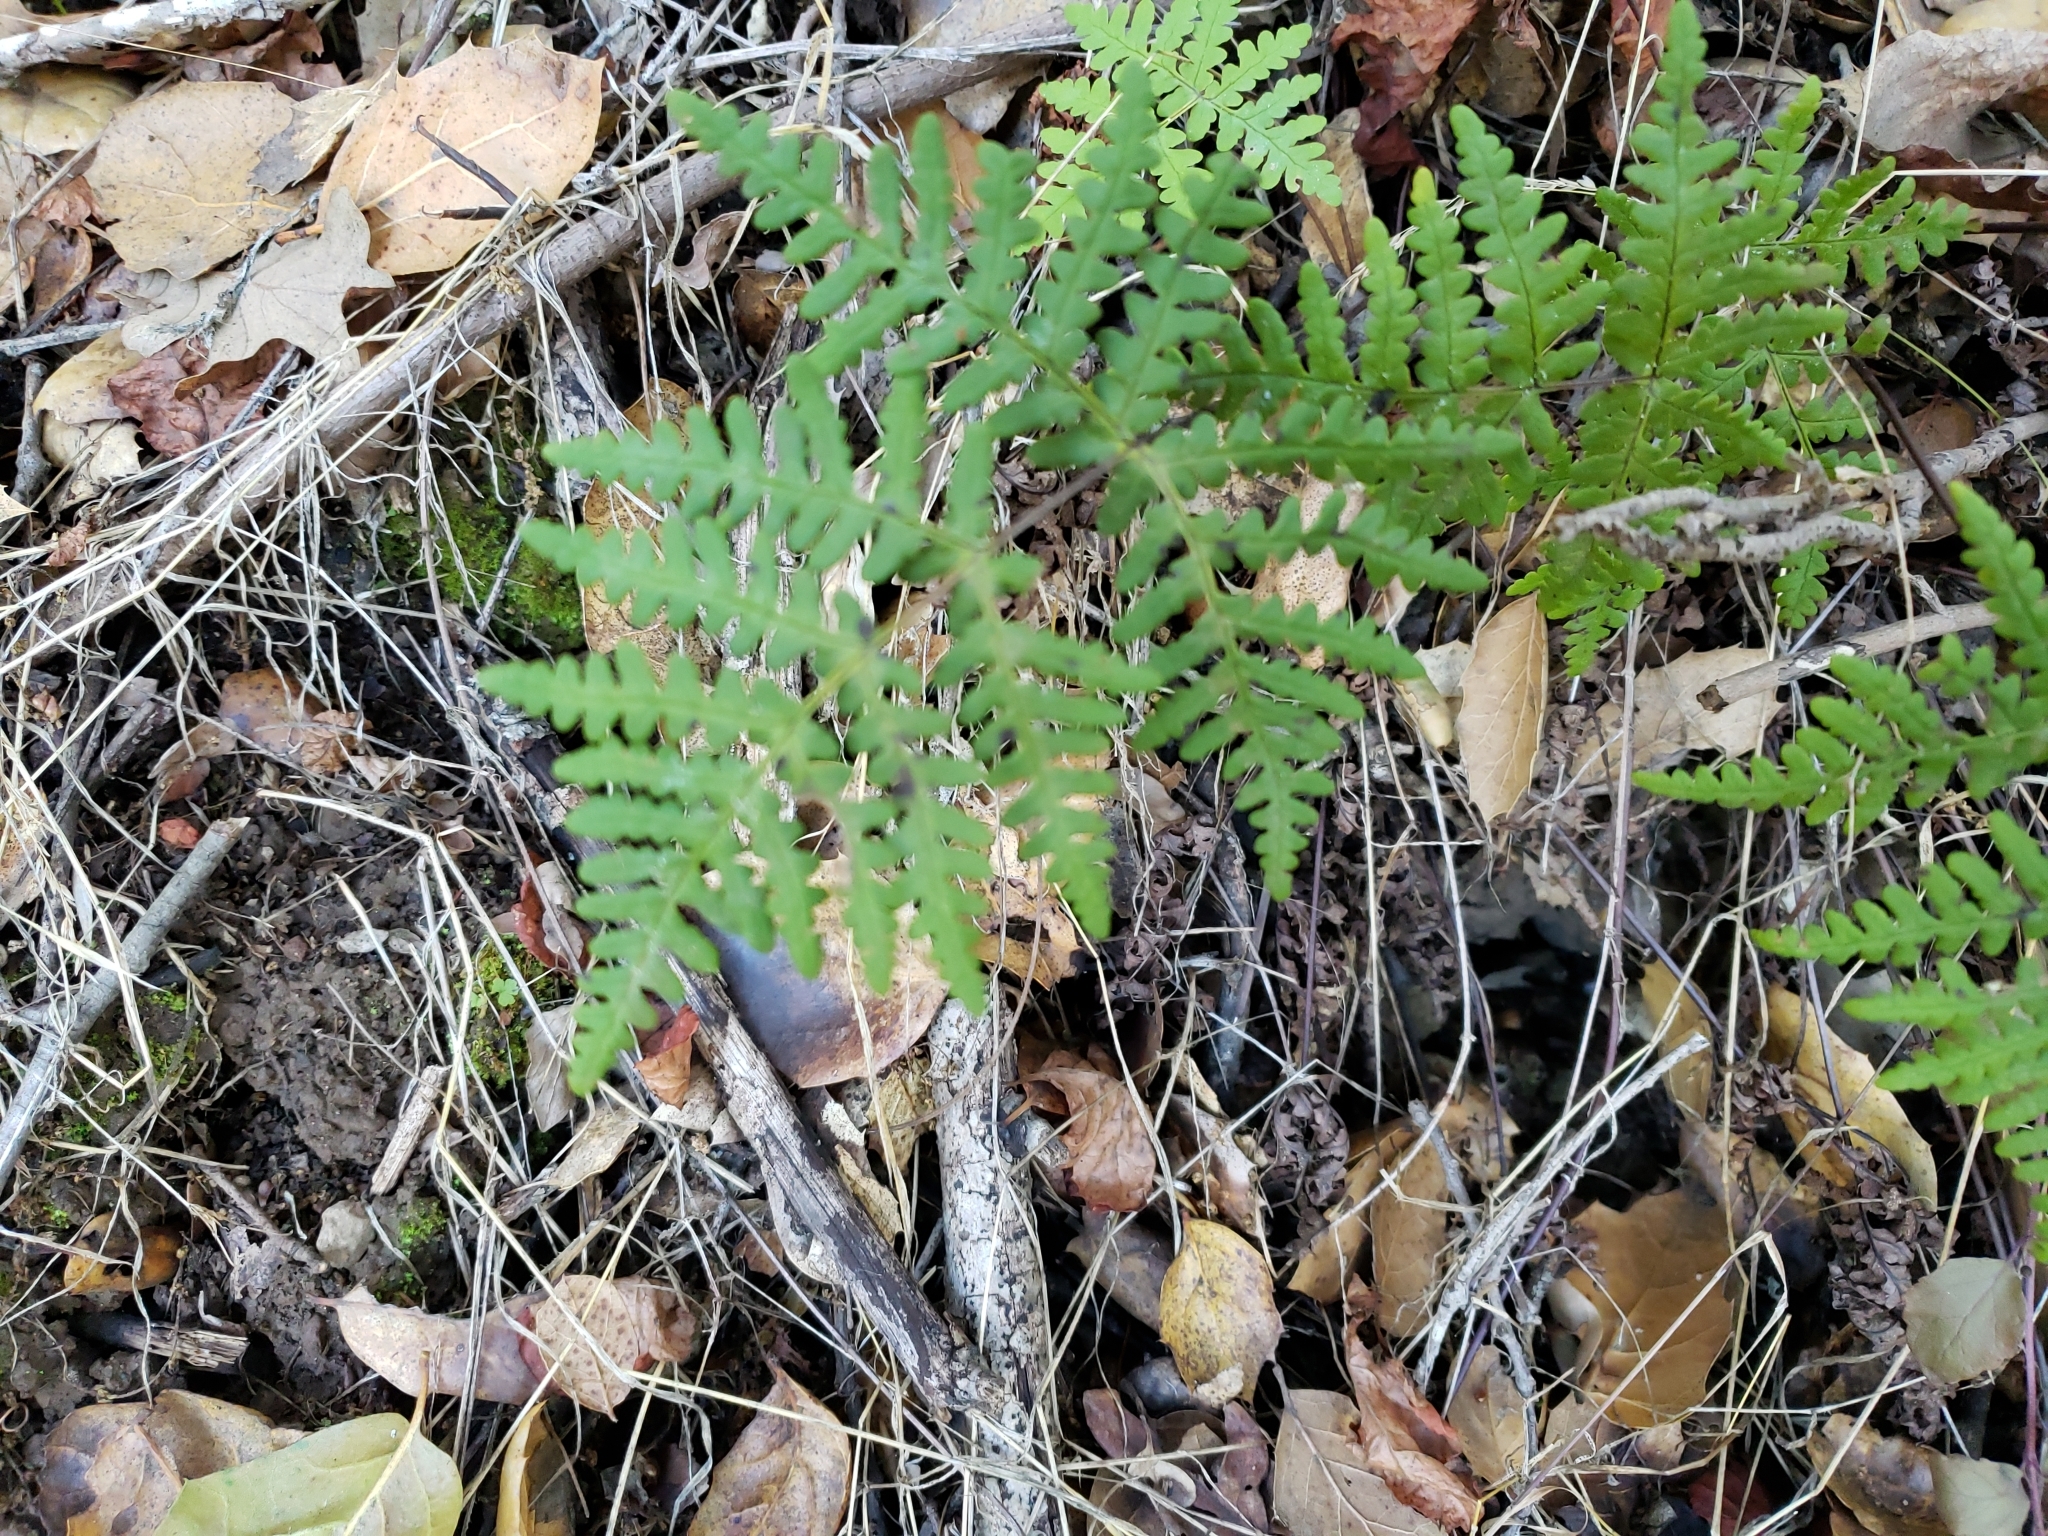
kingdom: Plantae
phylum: Tracheophyta
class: Polypodiopsida
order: Polypodiales
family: Pteridaceae
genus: Pentagramma
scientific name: Pentagramma triangularis
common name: Gold fern
